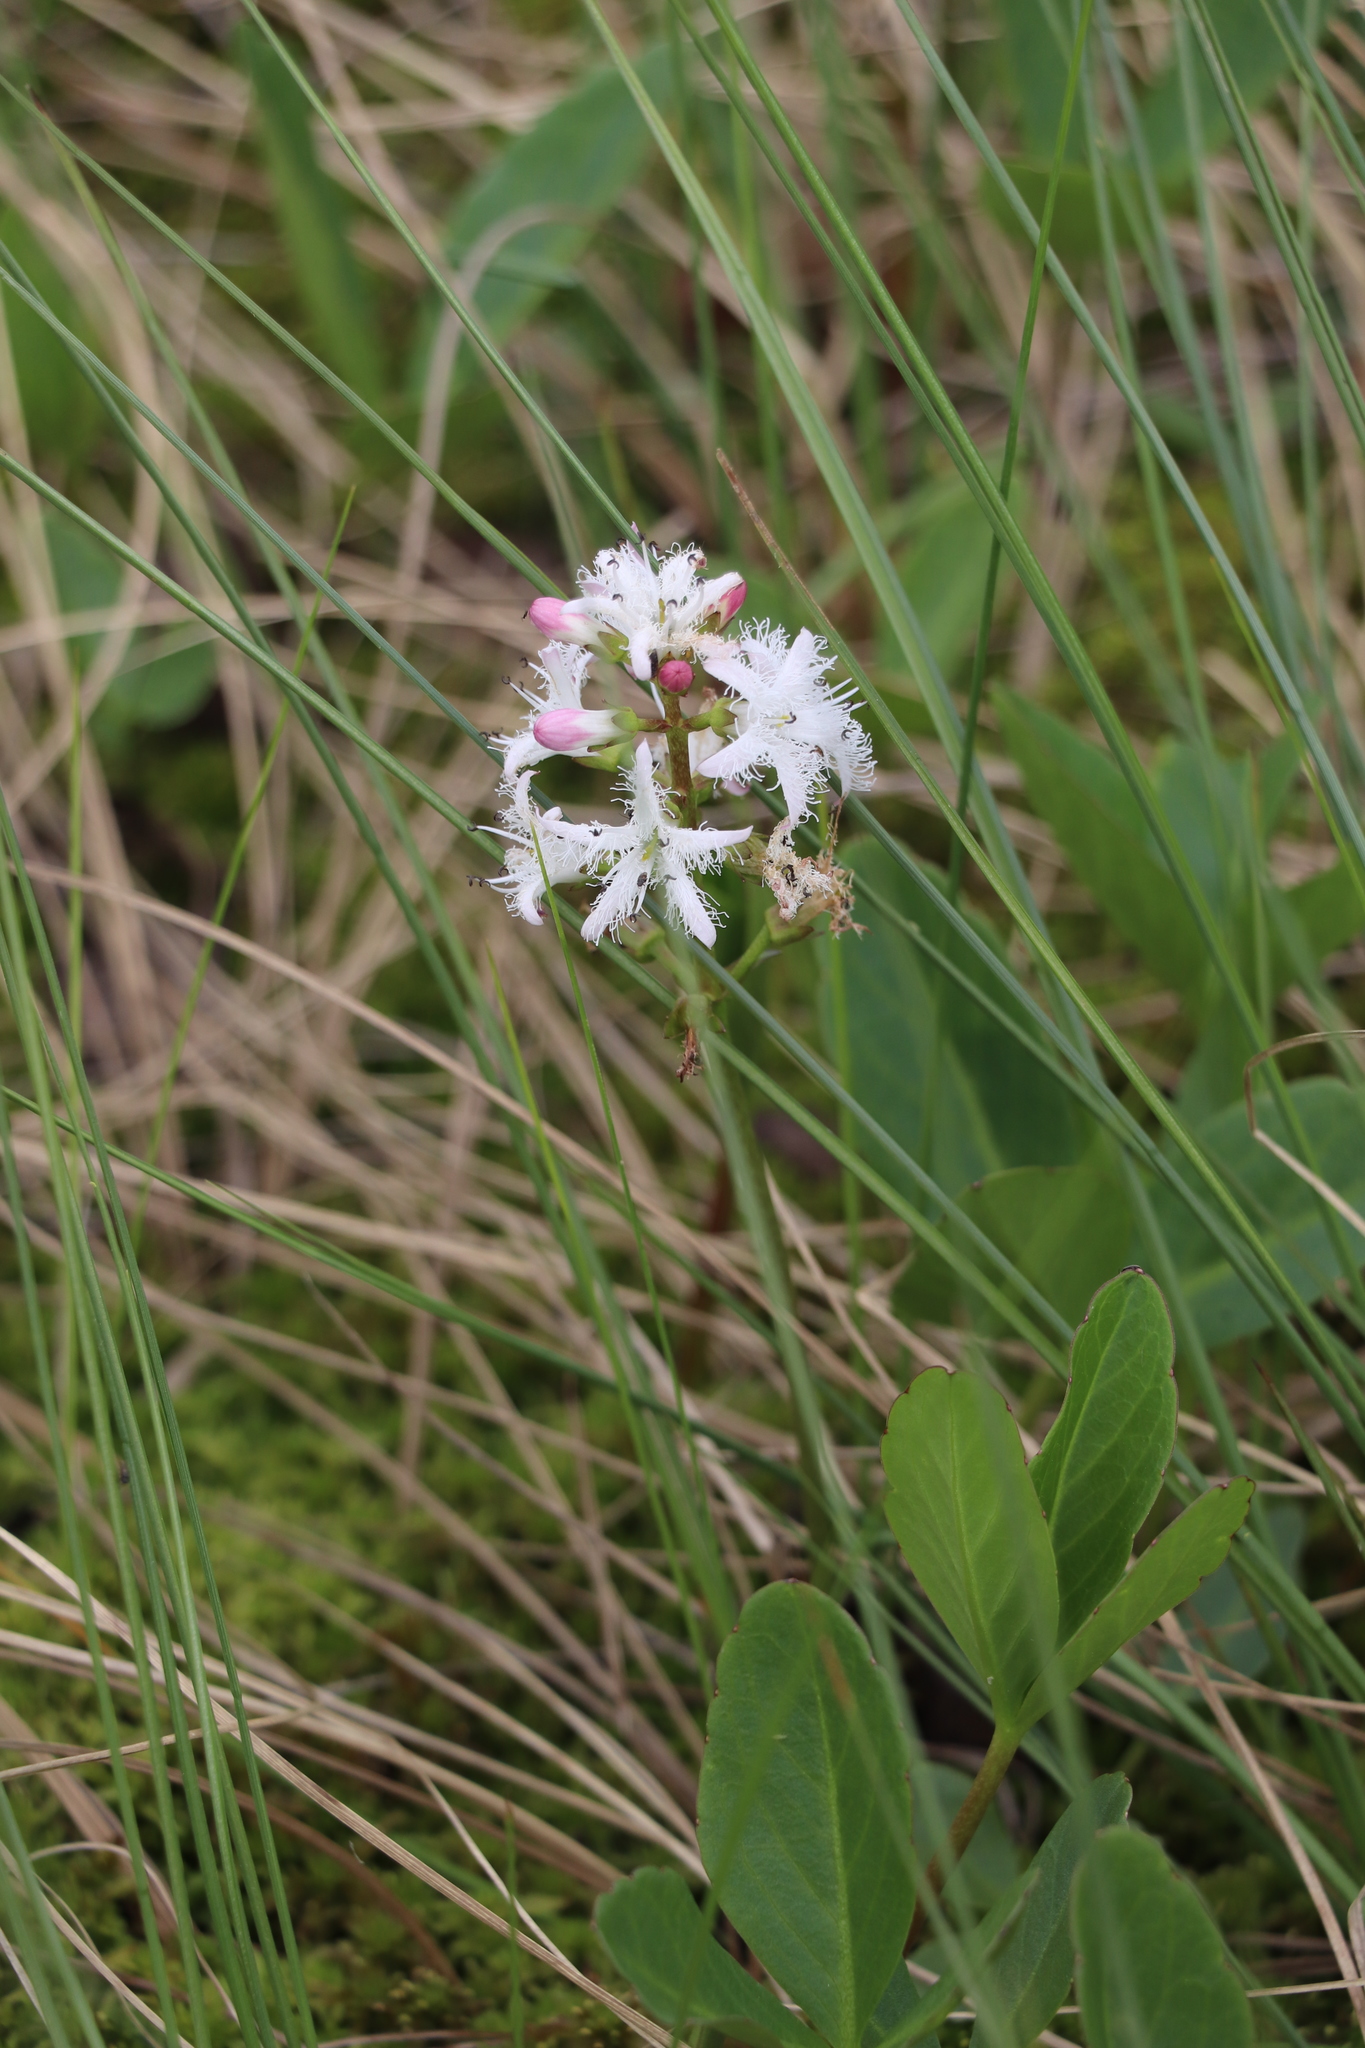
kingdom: Plantae
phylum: Tracheophyta
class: Magnoliopsida
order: Asterales
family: Menyanthaceae
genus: Menyanthes
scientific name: Menyanthes trifoliata
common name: Bogbean
